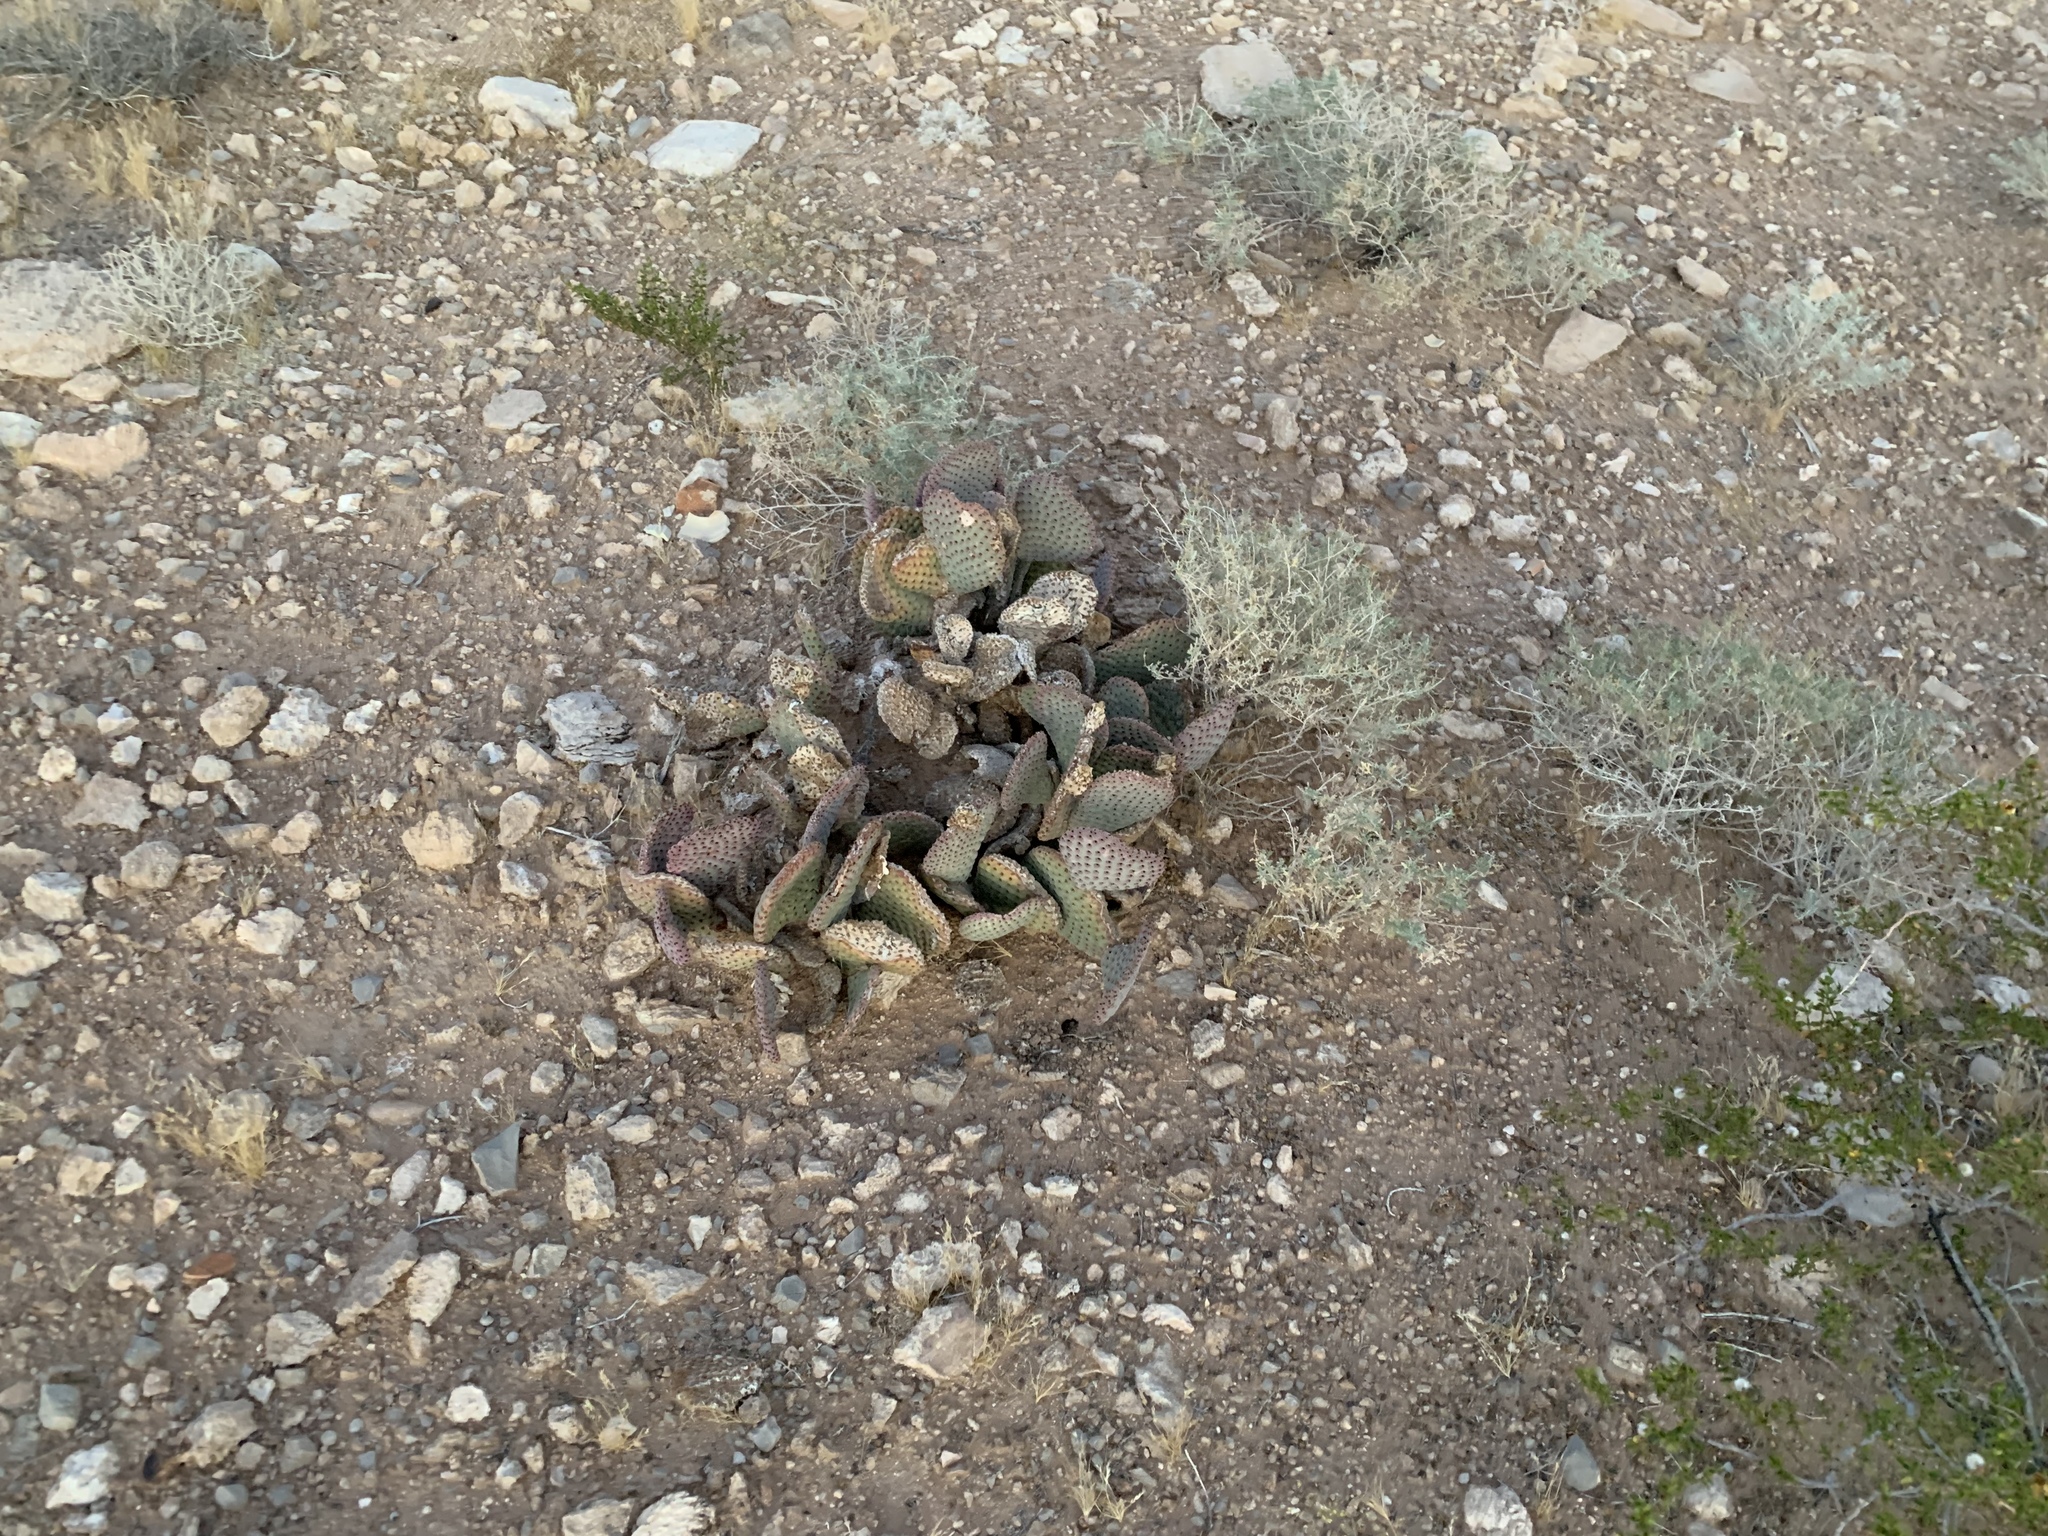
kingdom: Plantae
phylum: Tracheophyta
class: Magnoliopsida
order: Caryophyllales
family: Cactaceae
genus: Opuntia
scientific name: Opuntia basilaris
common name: Beavertail prickly-pear
